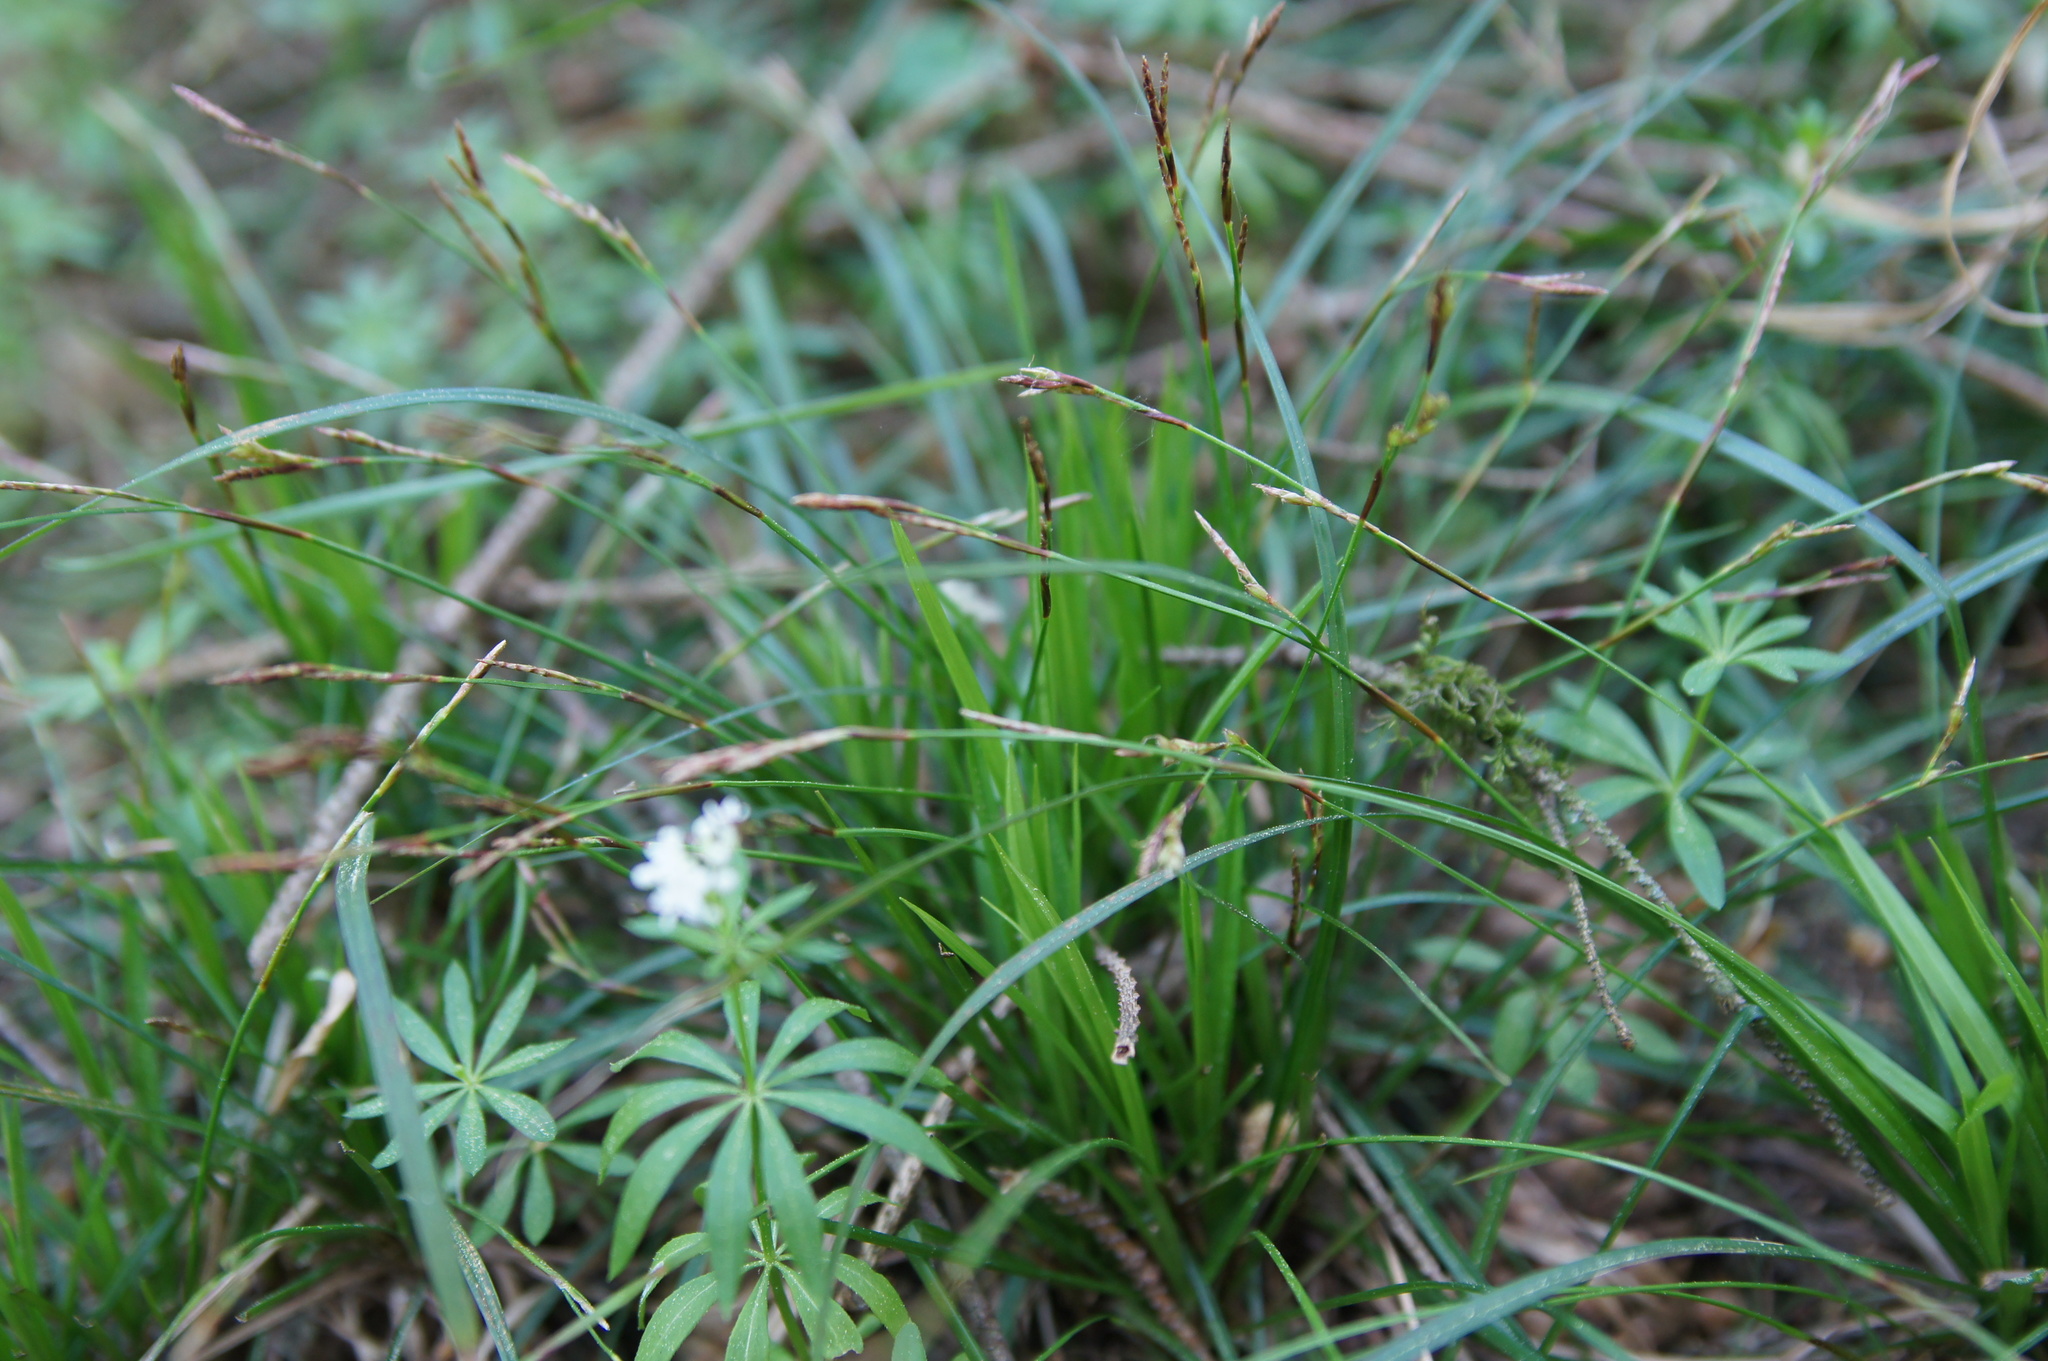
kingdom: Plantae
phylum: Tracheophyta
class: Liliopsida
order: Poales
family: Cyperaceae
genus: Carex
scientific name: Carex digitata
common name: Fingered sedge
